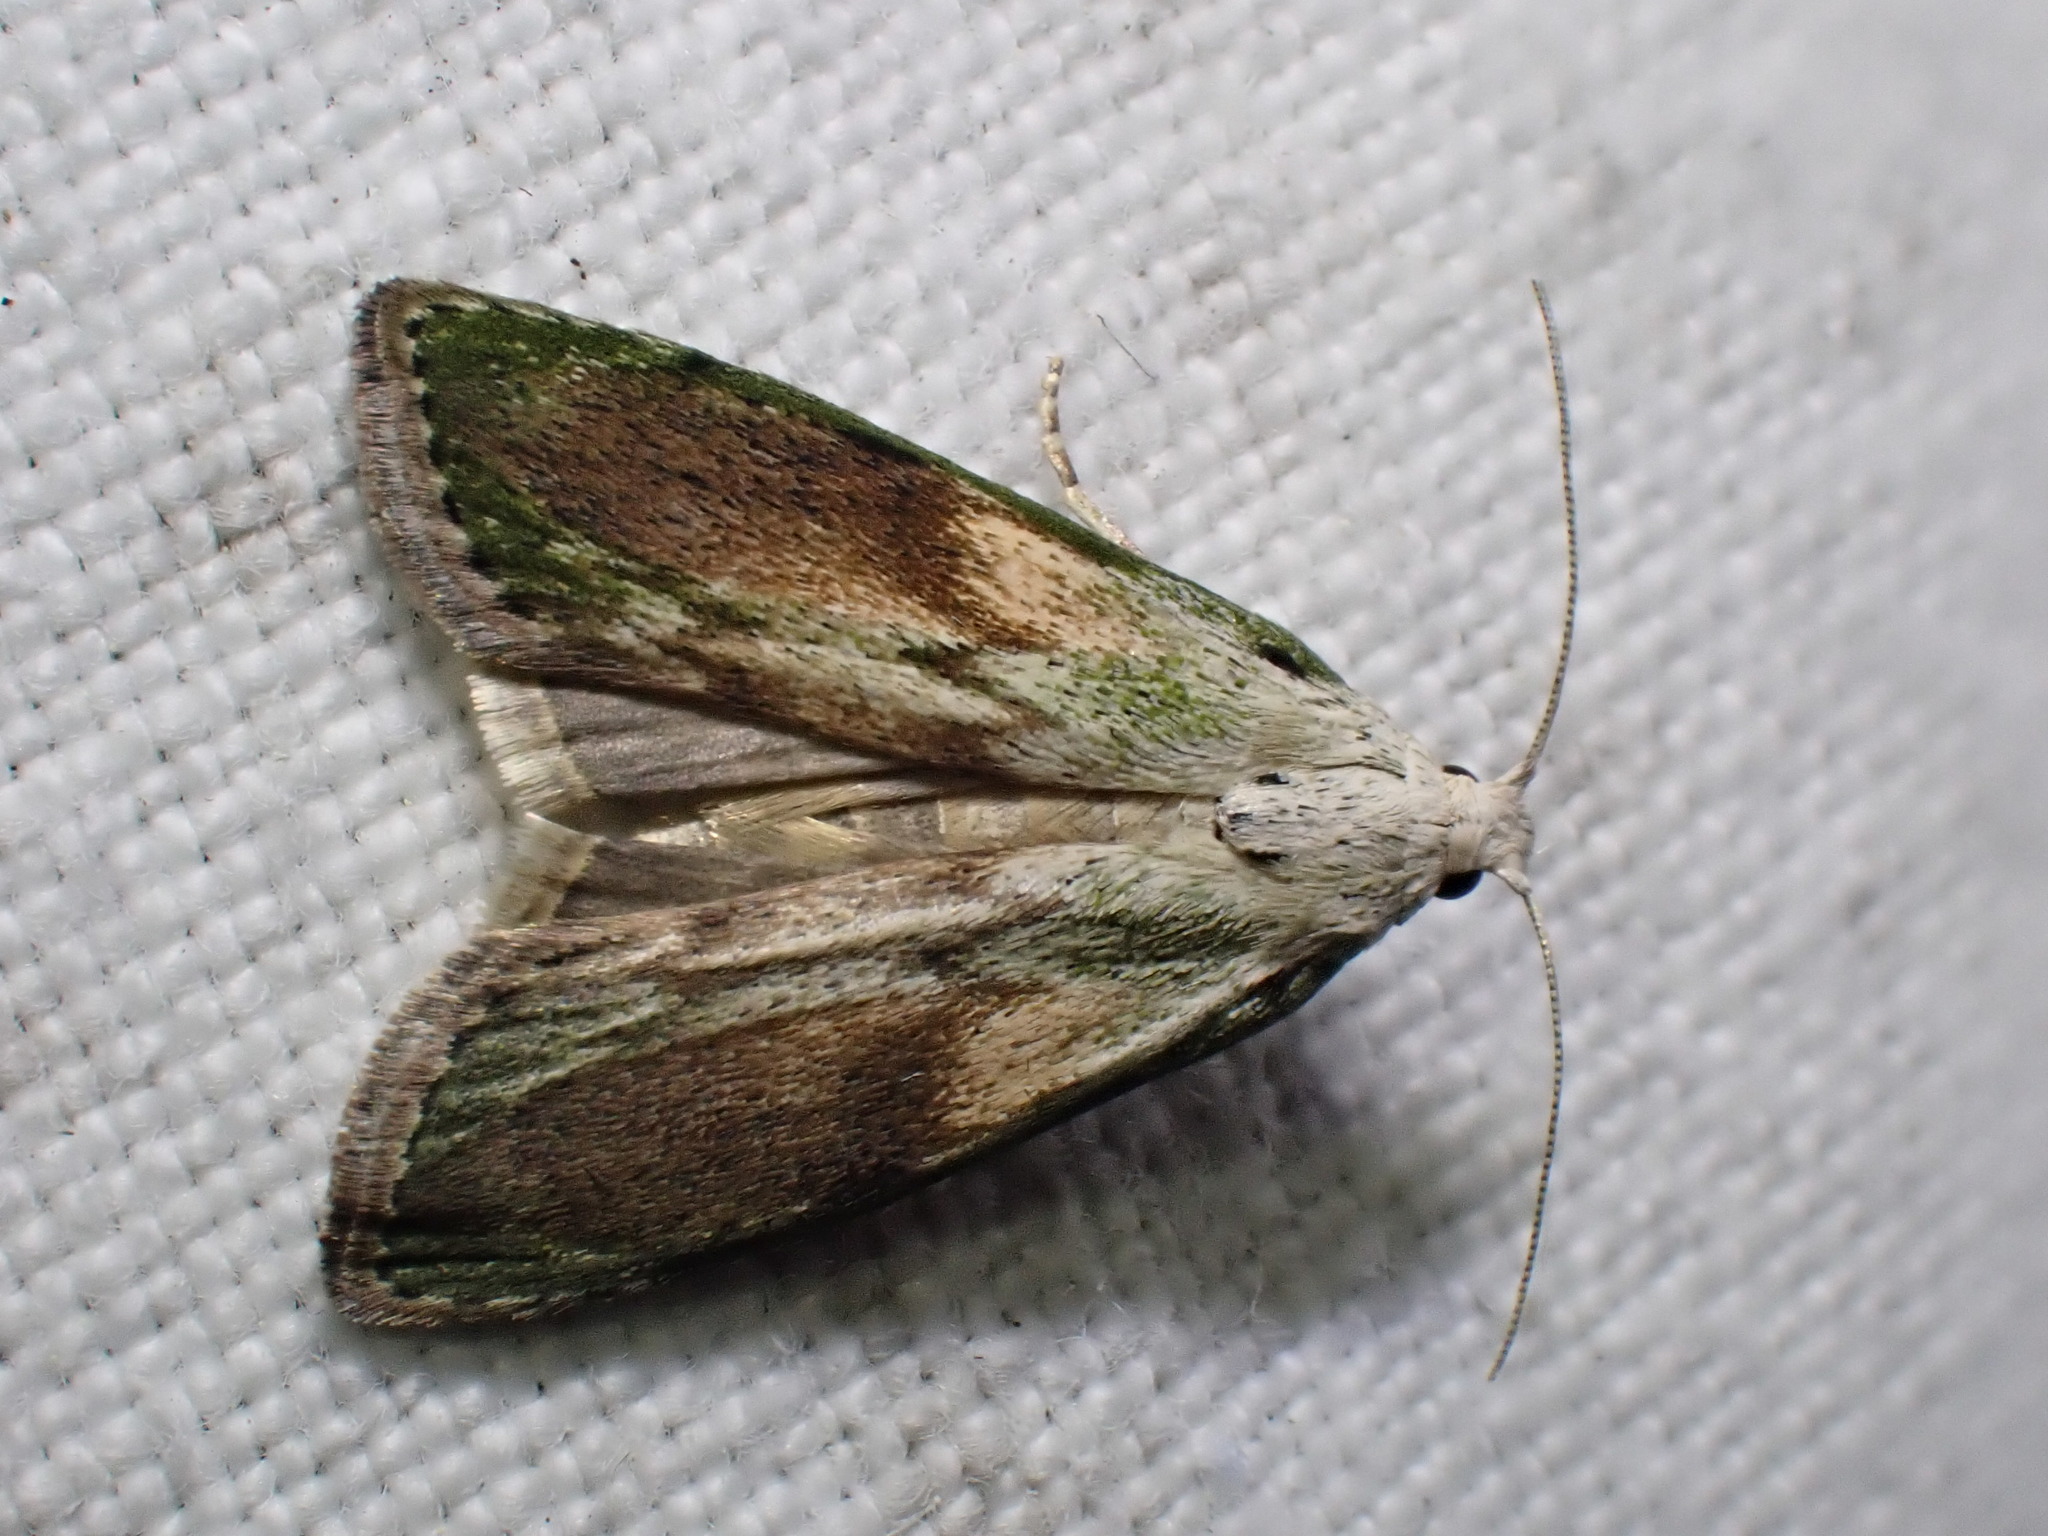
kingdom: Animalia
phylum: Arthropoda
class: Insecta
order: Lepidoptera
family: Pyralidae
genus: Aphomia
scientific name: Aphomia sociella
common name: Bee moth
